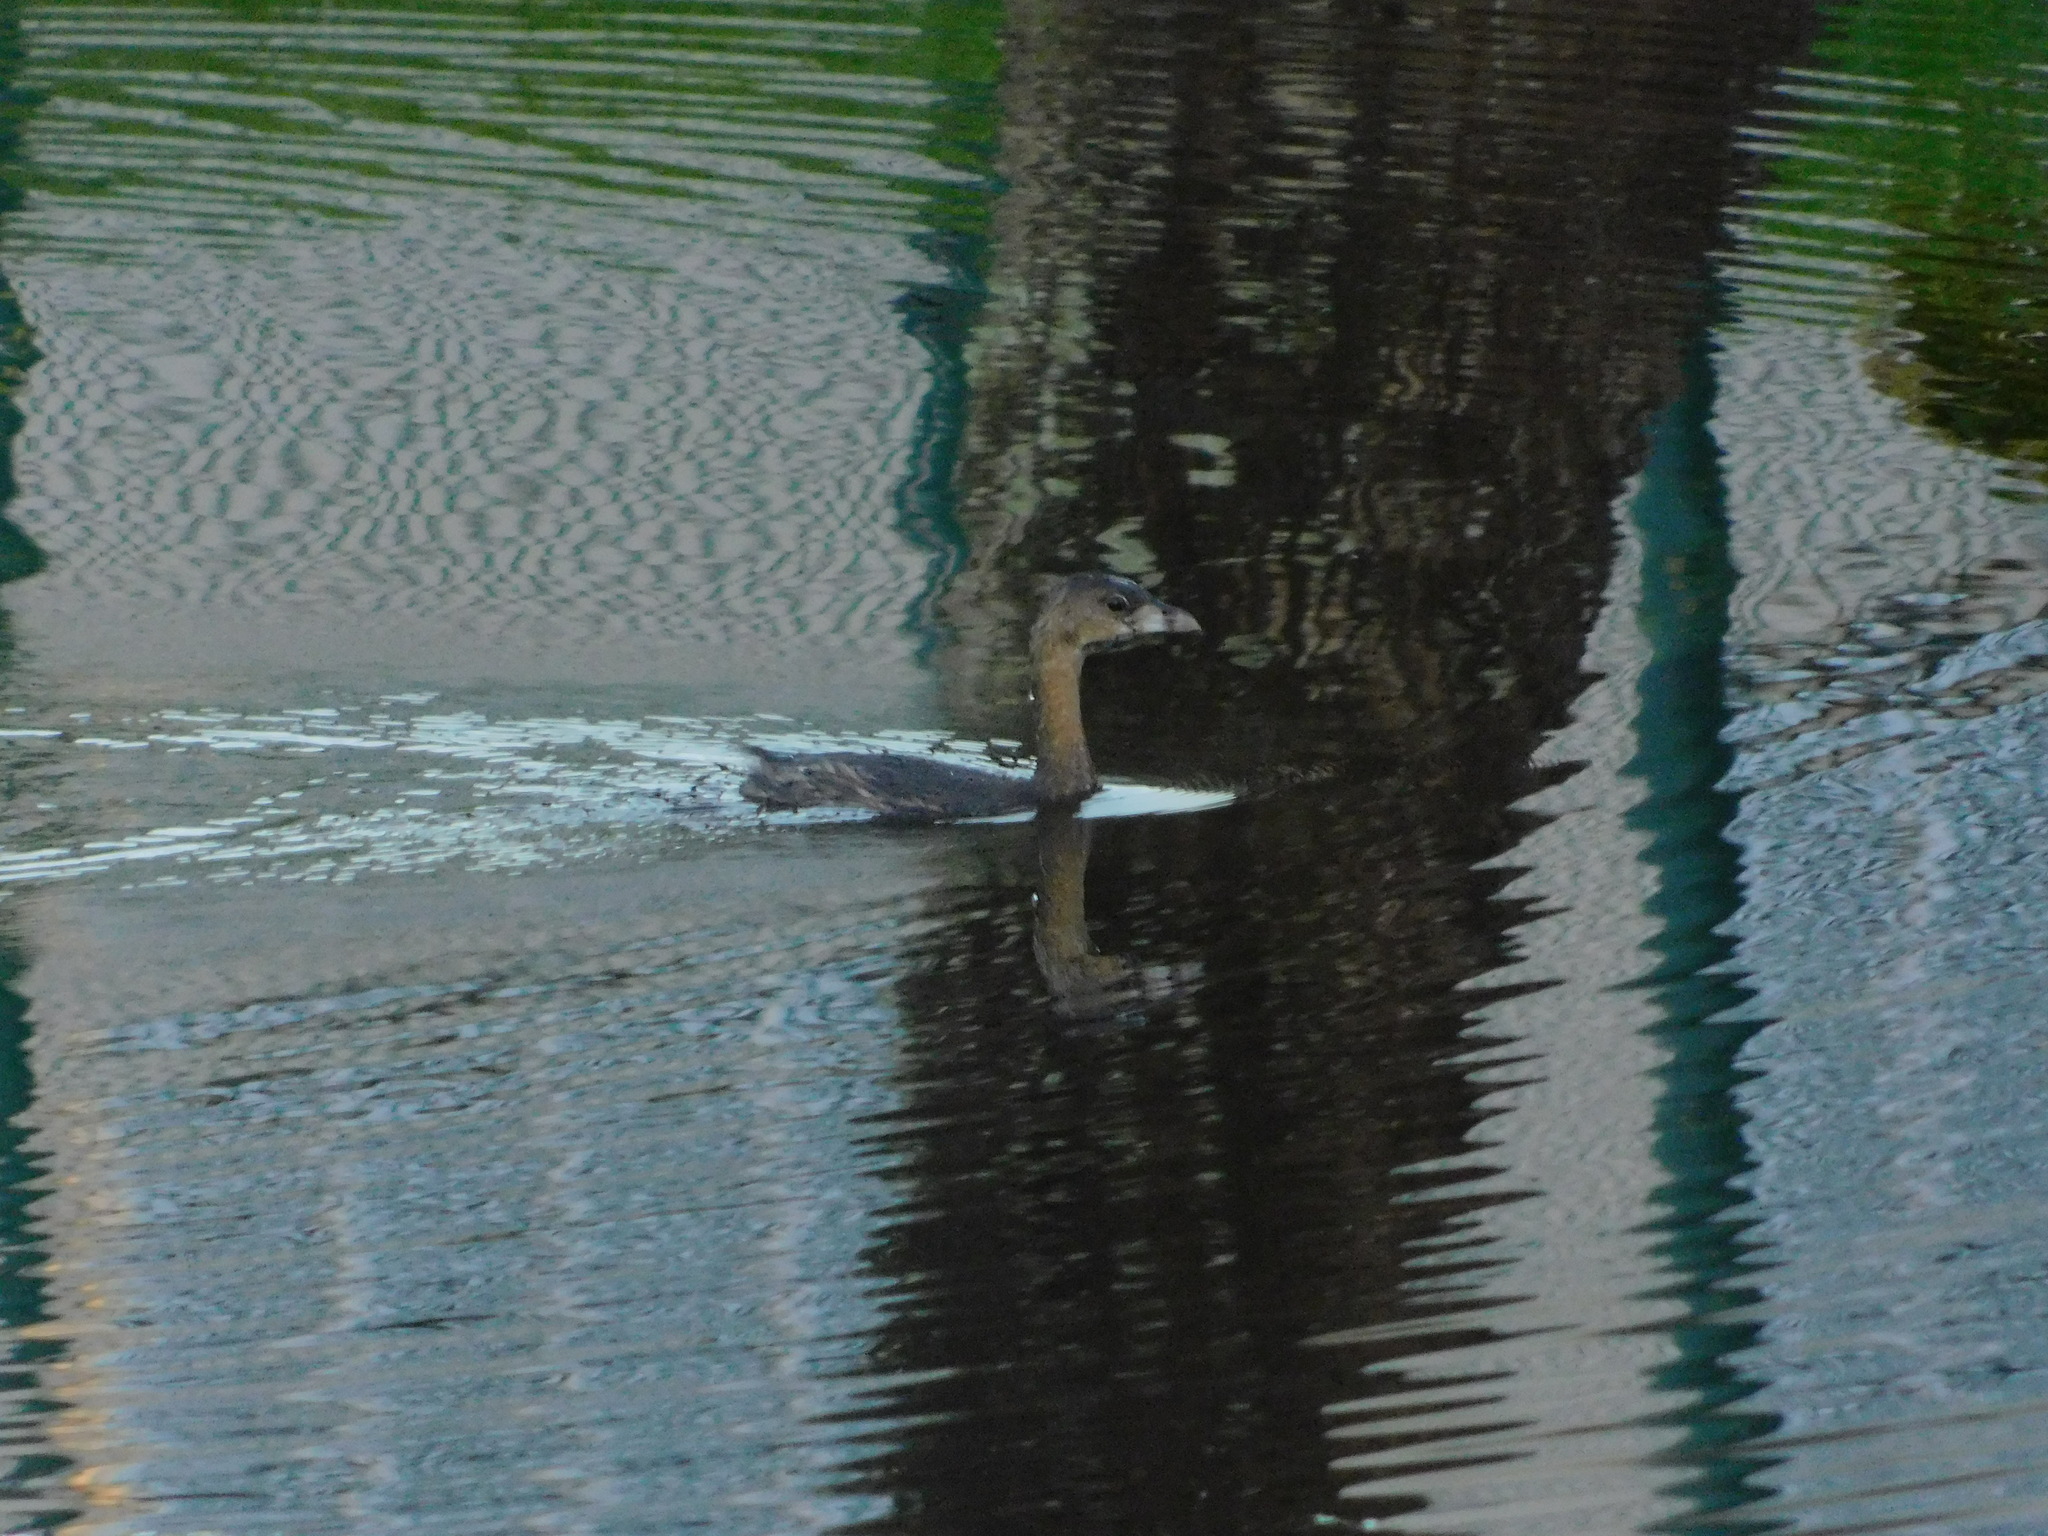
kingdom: Animalia
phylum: Chordata
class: Aves
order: Podicipediformes
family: Podicipedidae
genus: Podilymbus
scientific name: Podilymbus podiceps
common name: Pied-billed grebe
